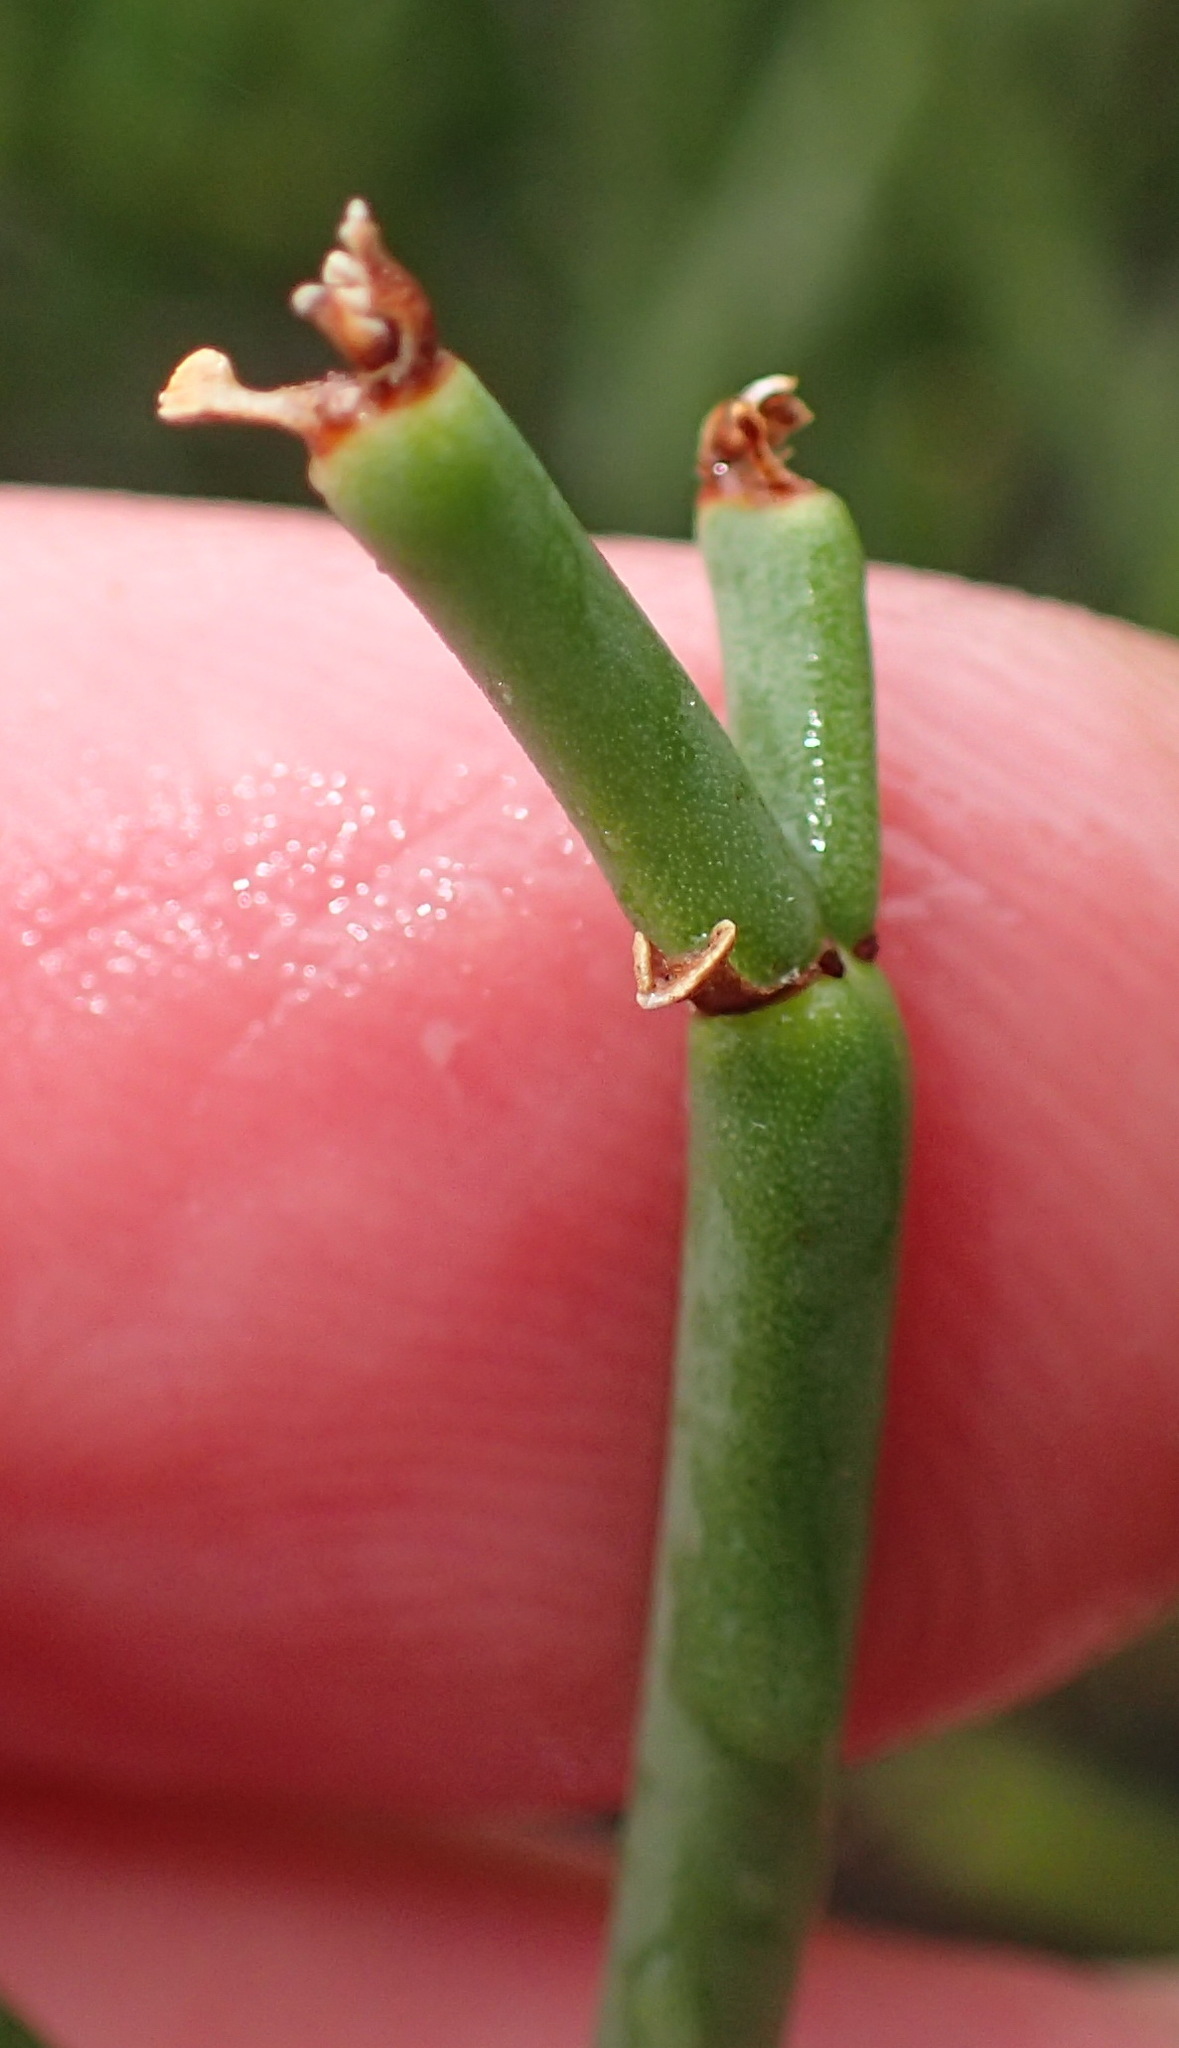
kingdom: Plantae
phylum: Tracheophyta
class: Magnoliopsida
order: Malpighiales
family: Euphorbiaceae
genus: Euphorbia
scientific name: Euphorbia burmanni
